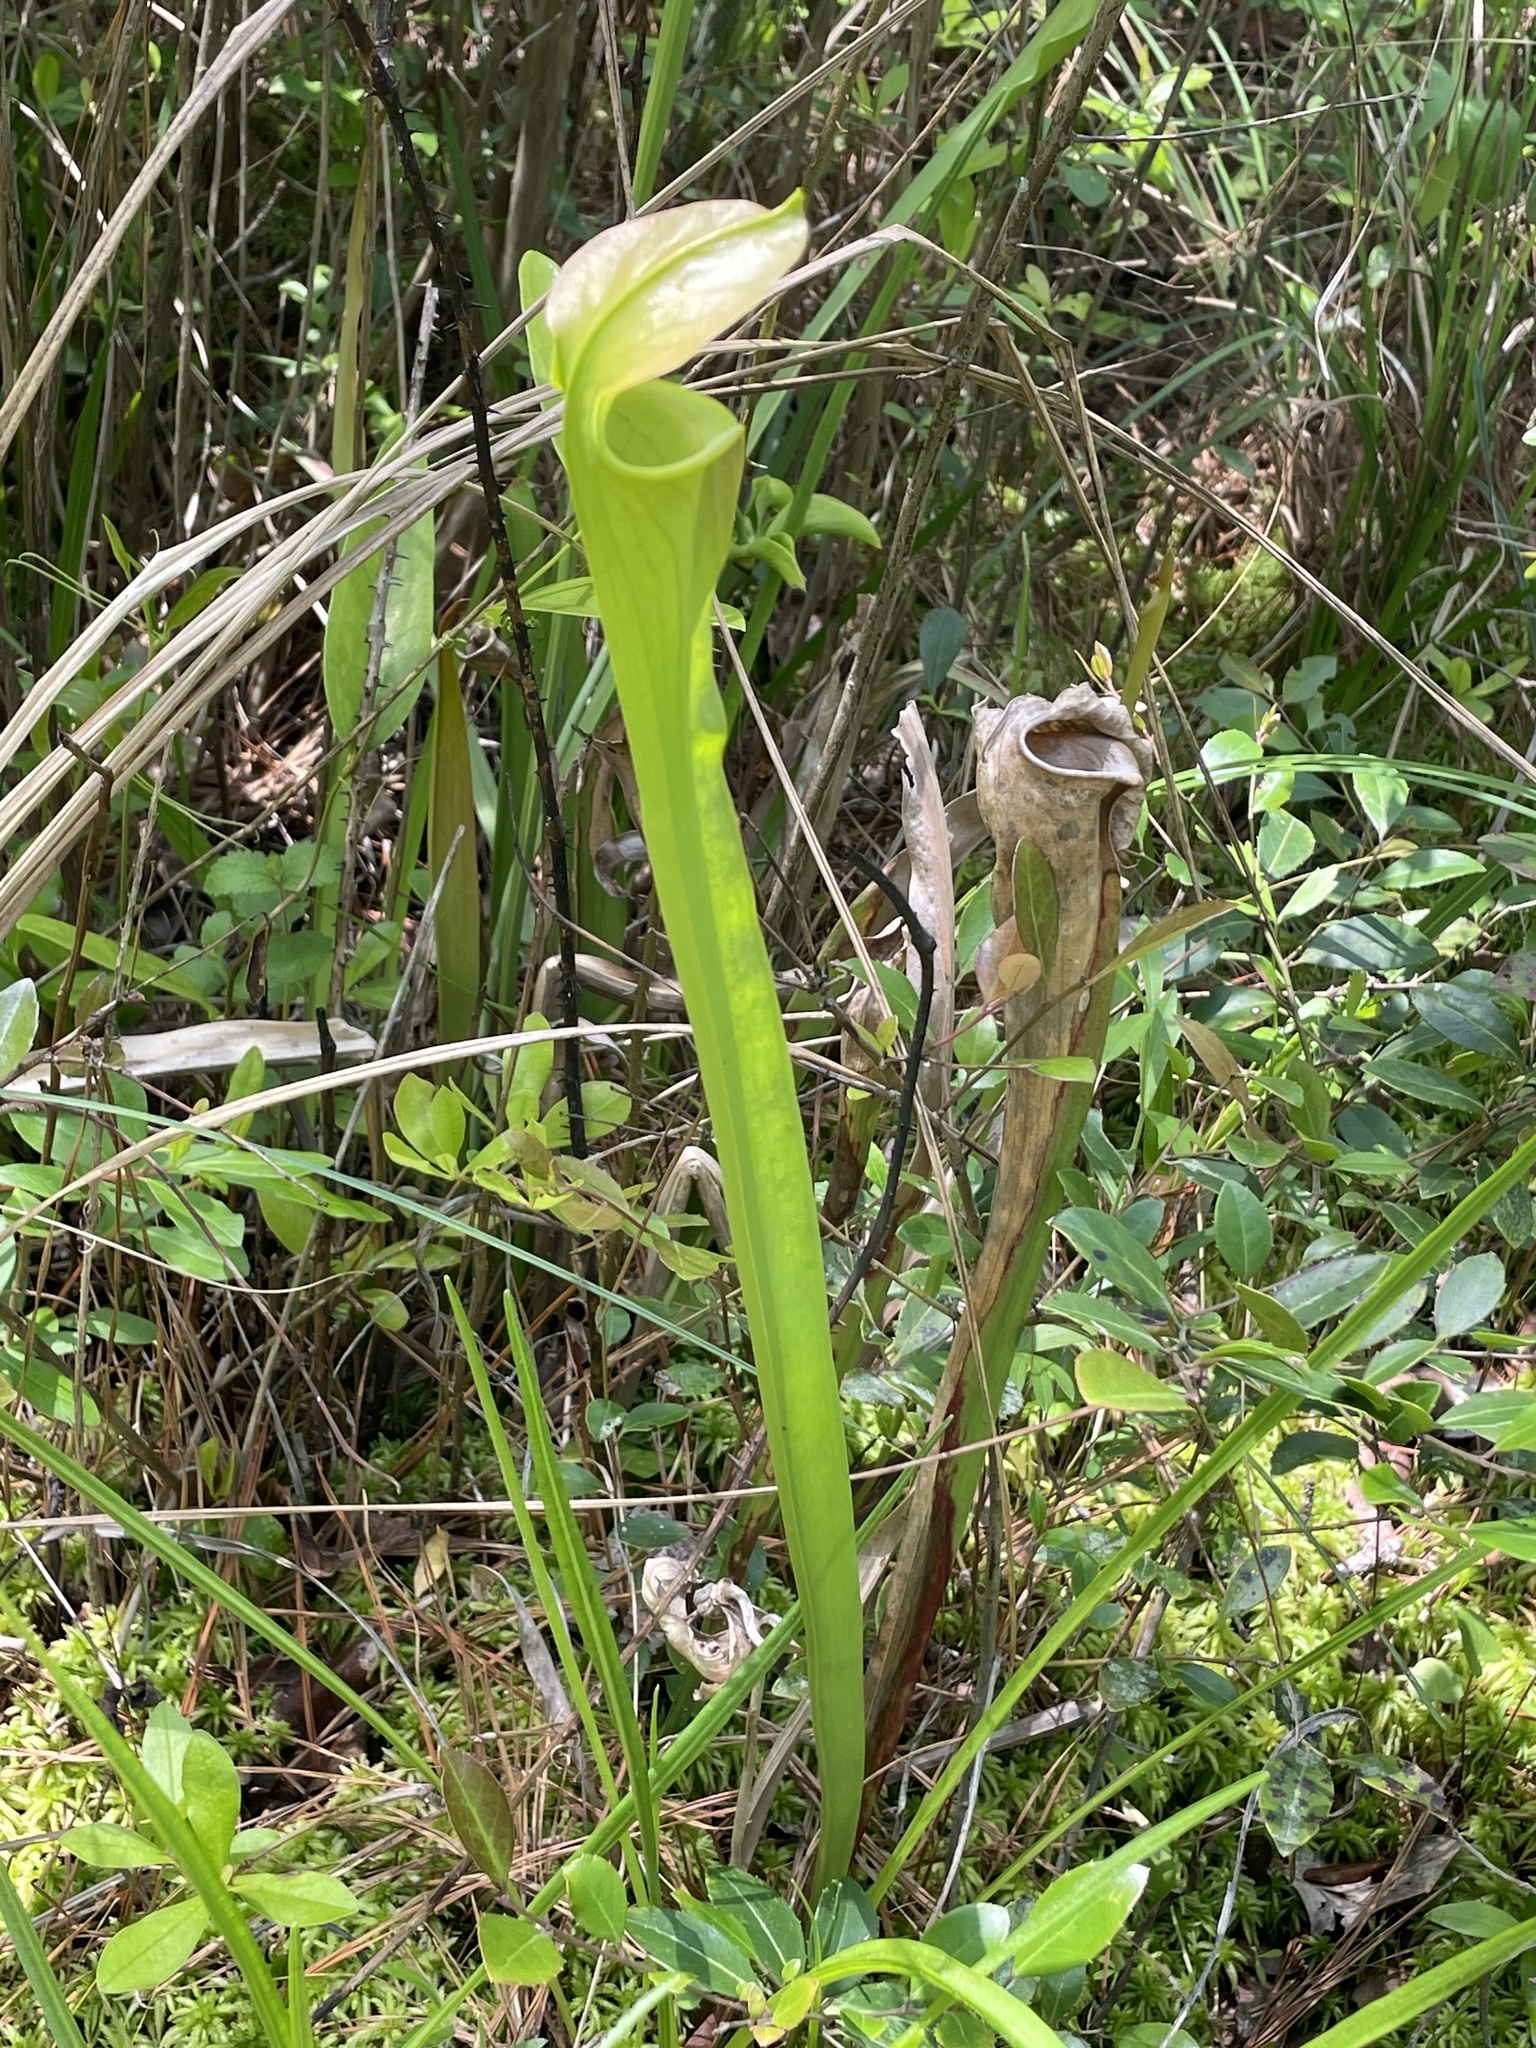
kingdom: Plantae
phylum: Tracheophyta
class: Magnoliopsida
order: Ericales
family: Sarraceniaceae
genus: Sarracenia
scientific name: Sarracenia alata
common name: Yellow trumpets
